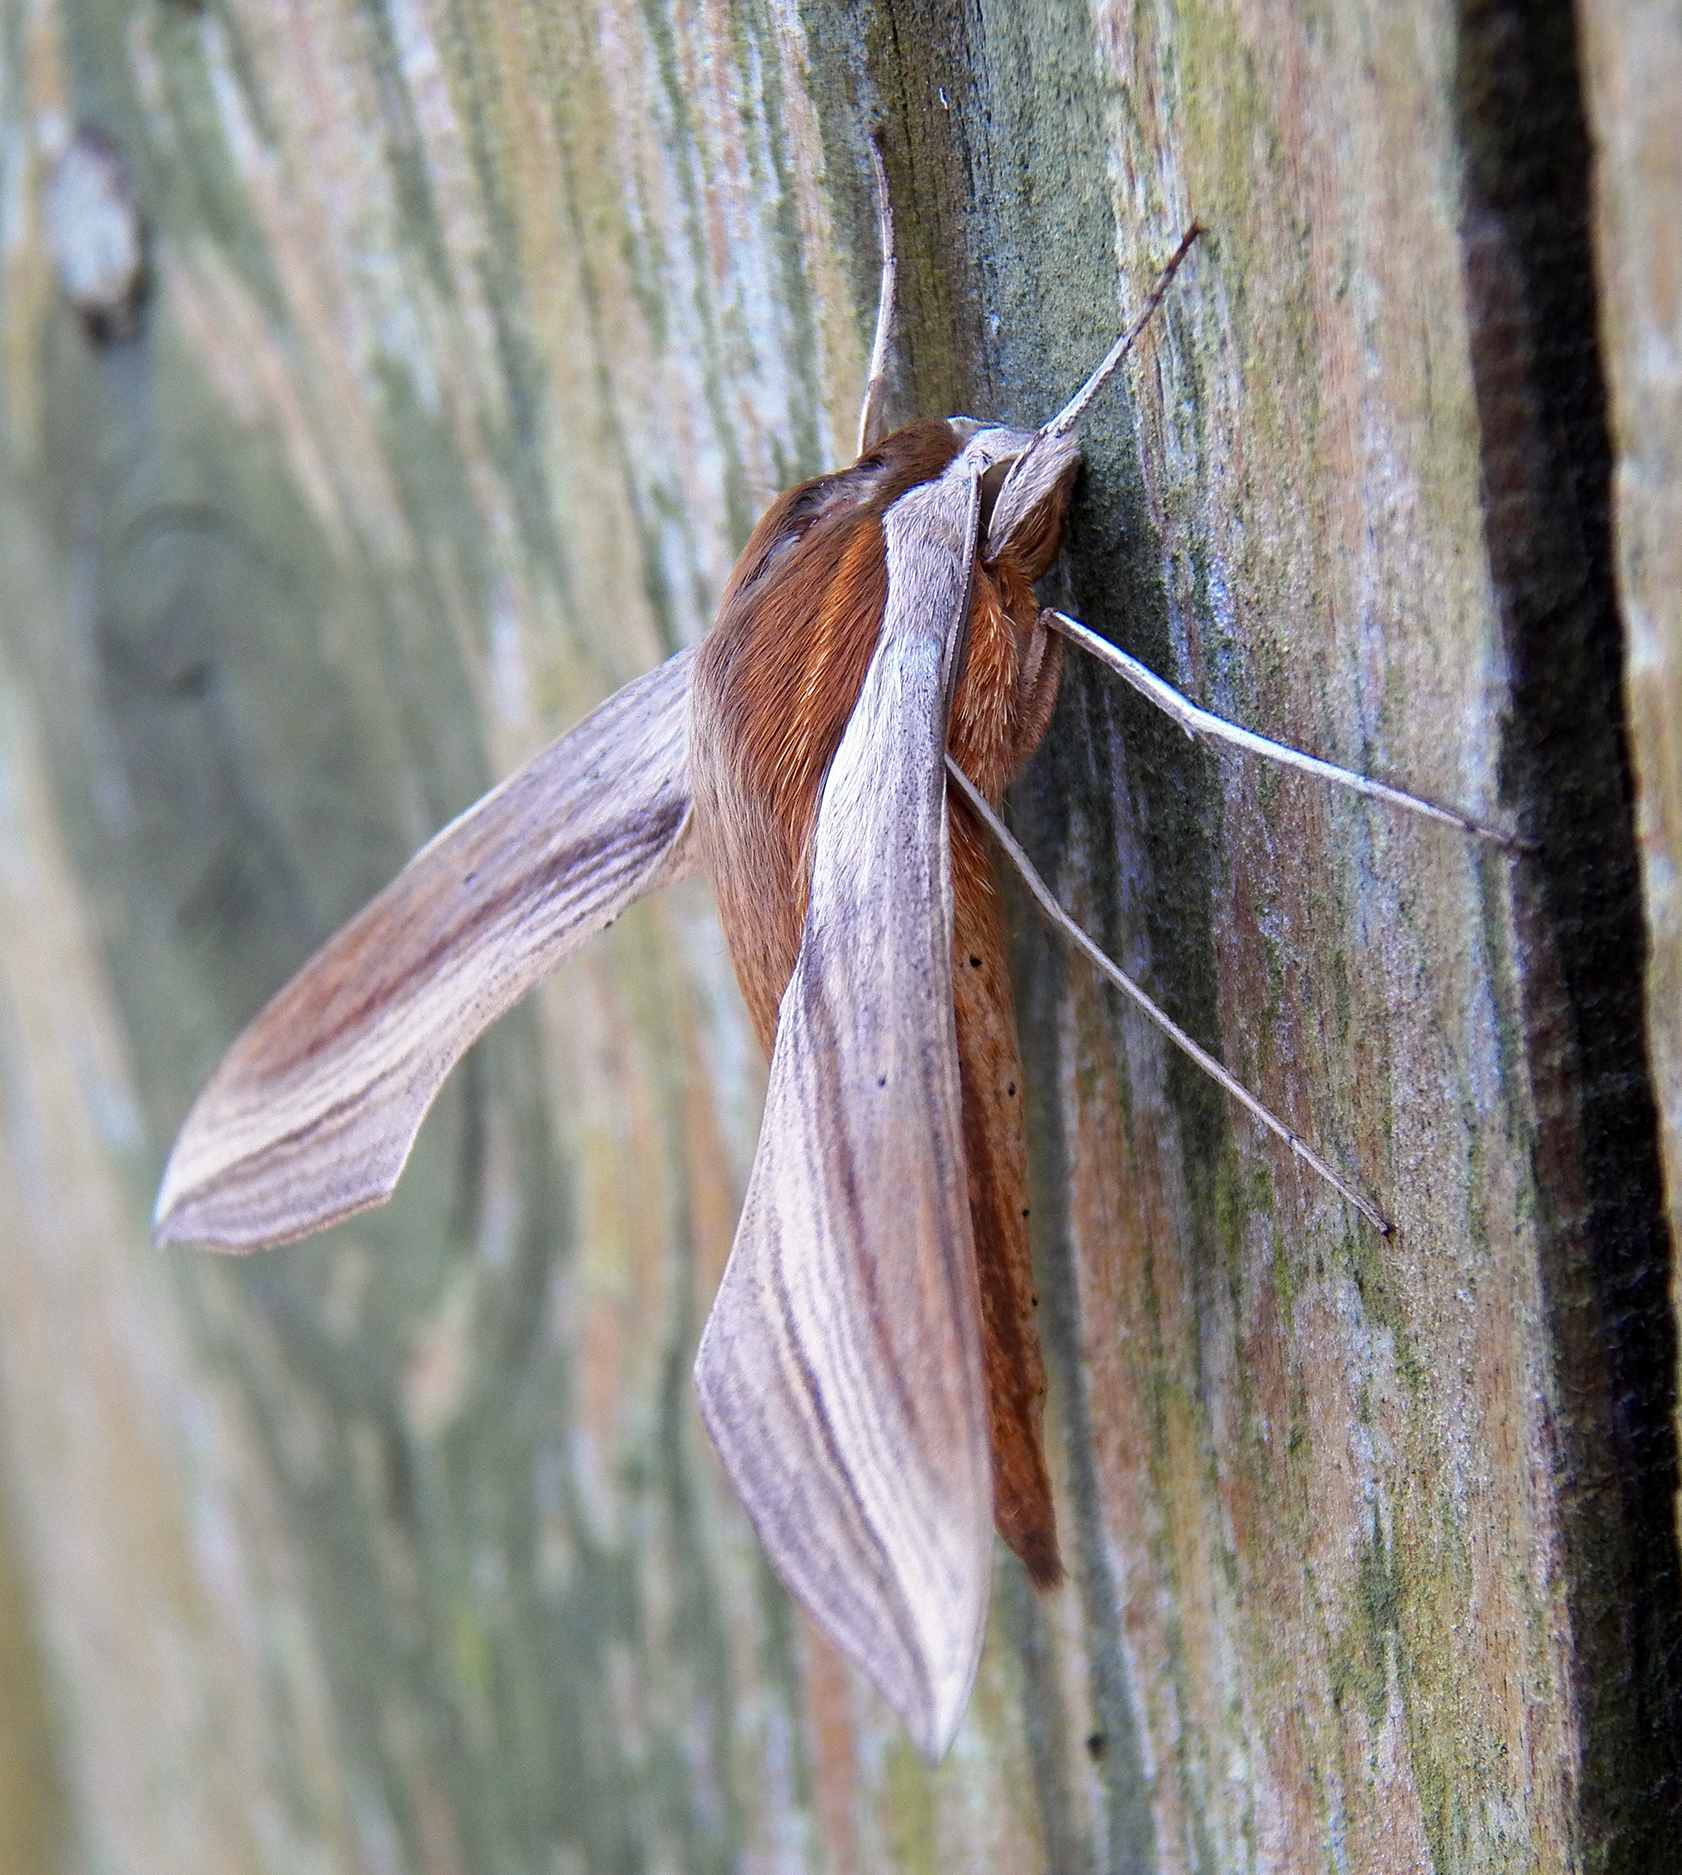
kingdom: Animalia
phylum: Arthropoda
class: Insecta
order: Lepidoptera
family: Sphingidae
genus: Xylophanes
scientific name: Xylophanes tersa
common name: Tersa sphinx
